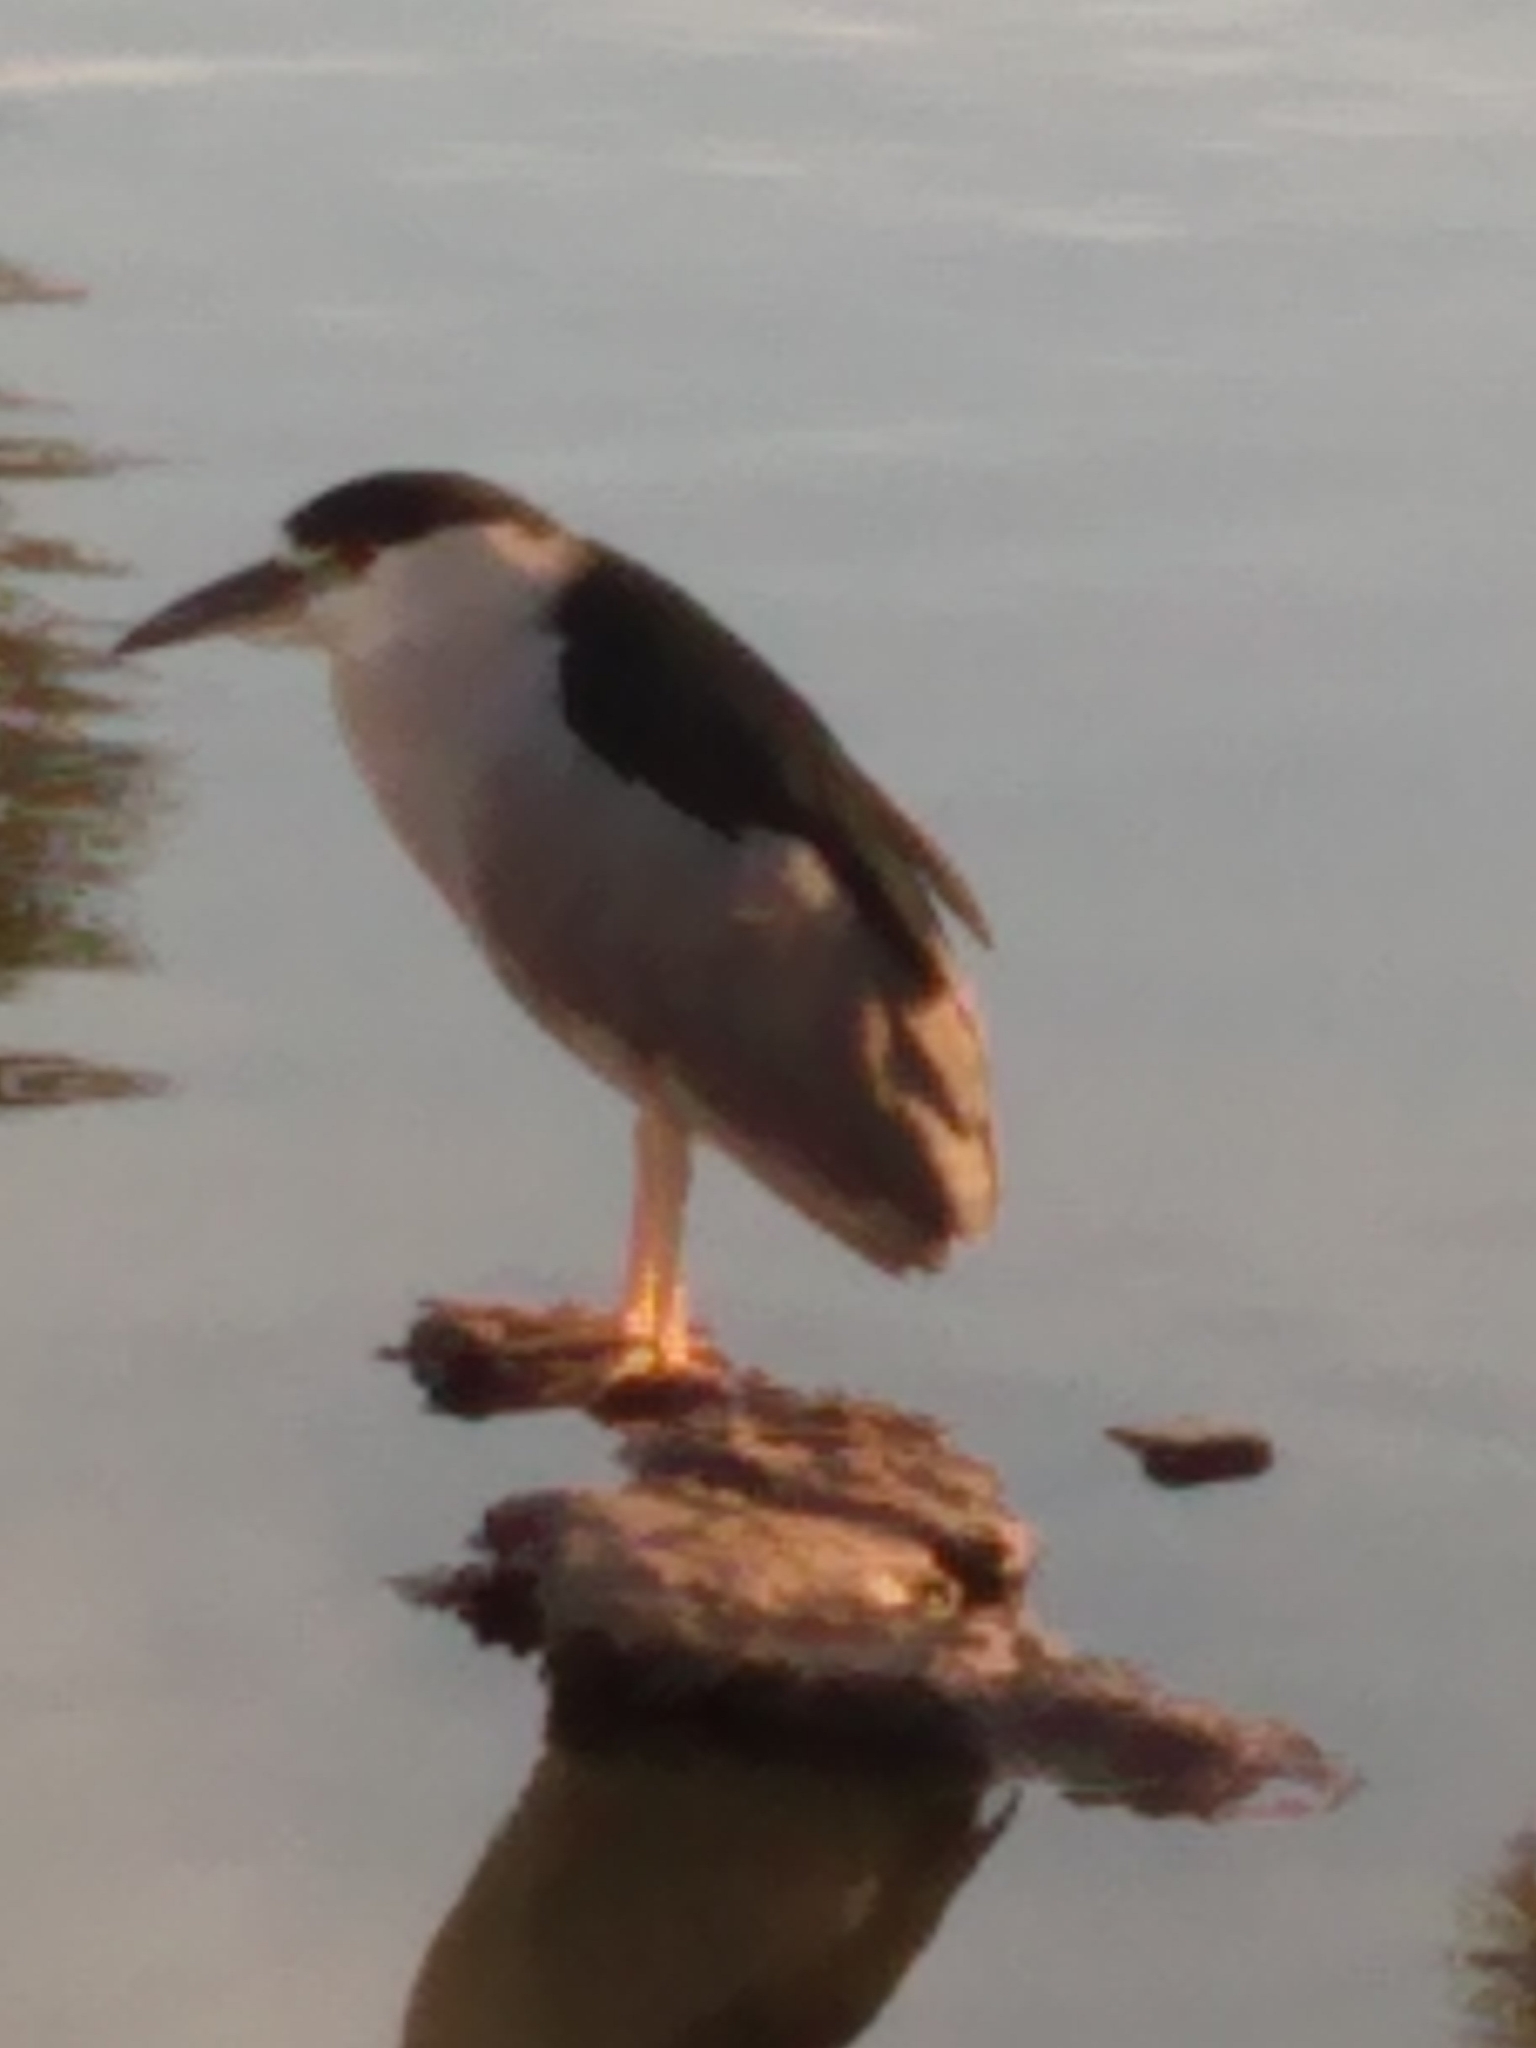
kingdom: Animalia
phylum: Chordata
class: Aves
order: Pelecaniformes
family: Ardeidae
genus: Nycticorax
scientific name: Nycticorax nycticorax
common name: Black-crowned night heron
